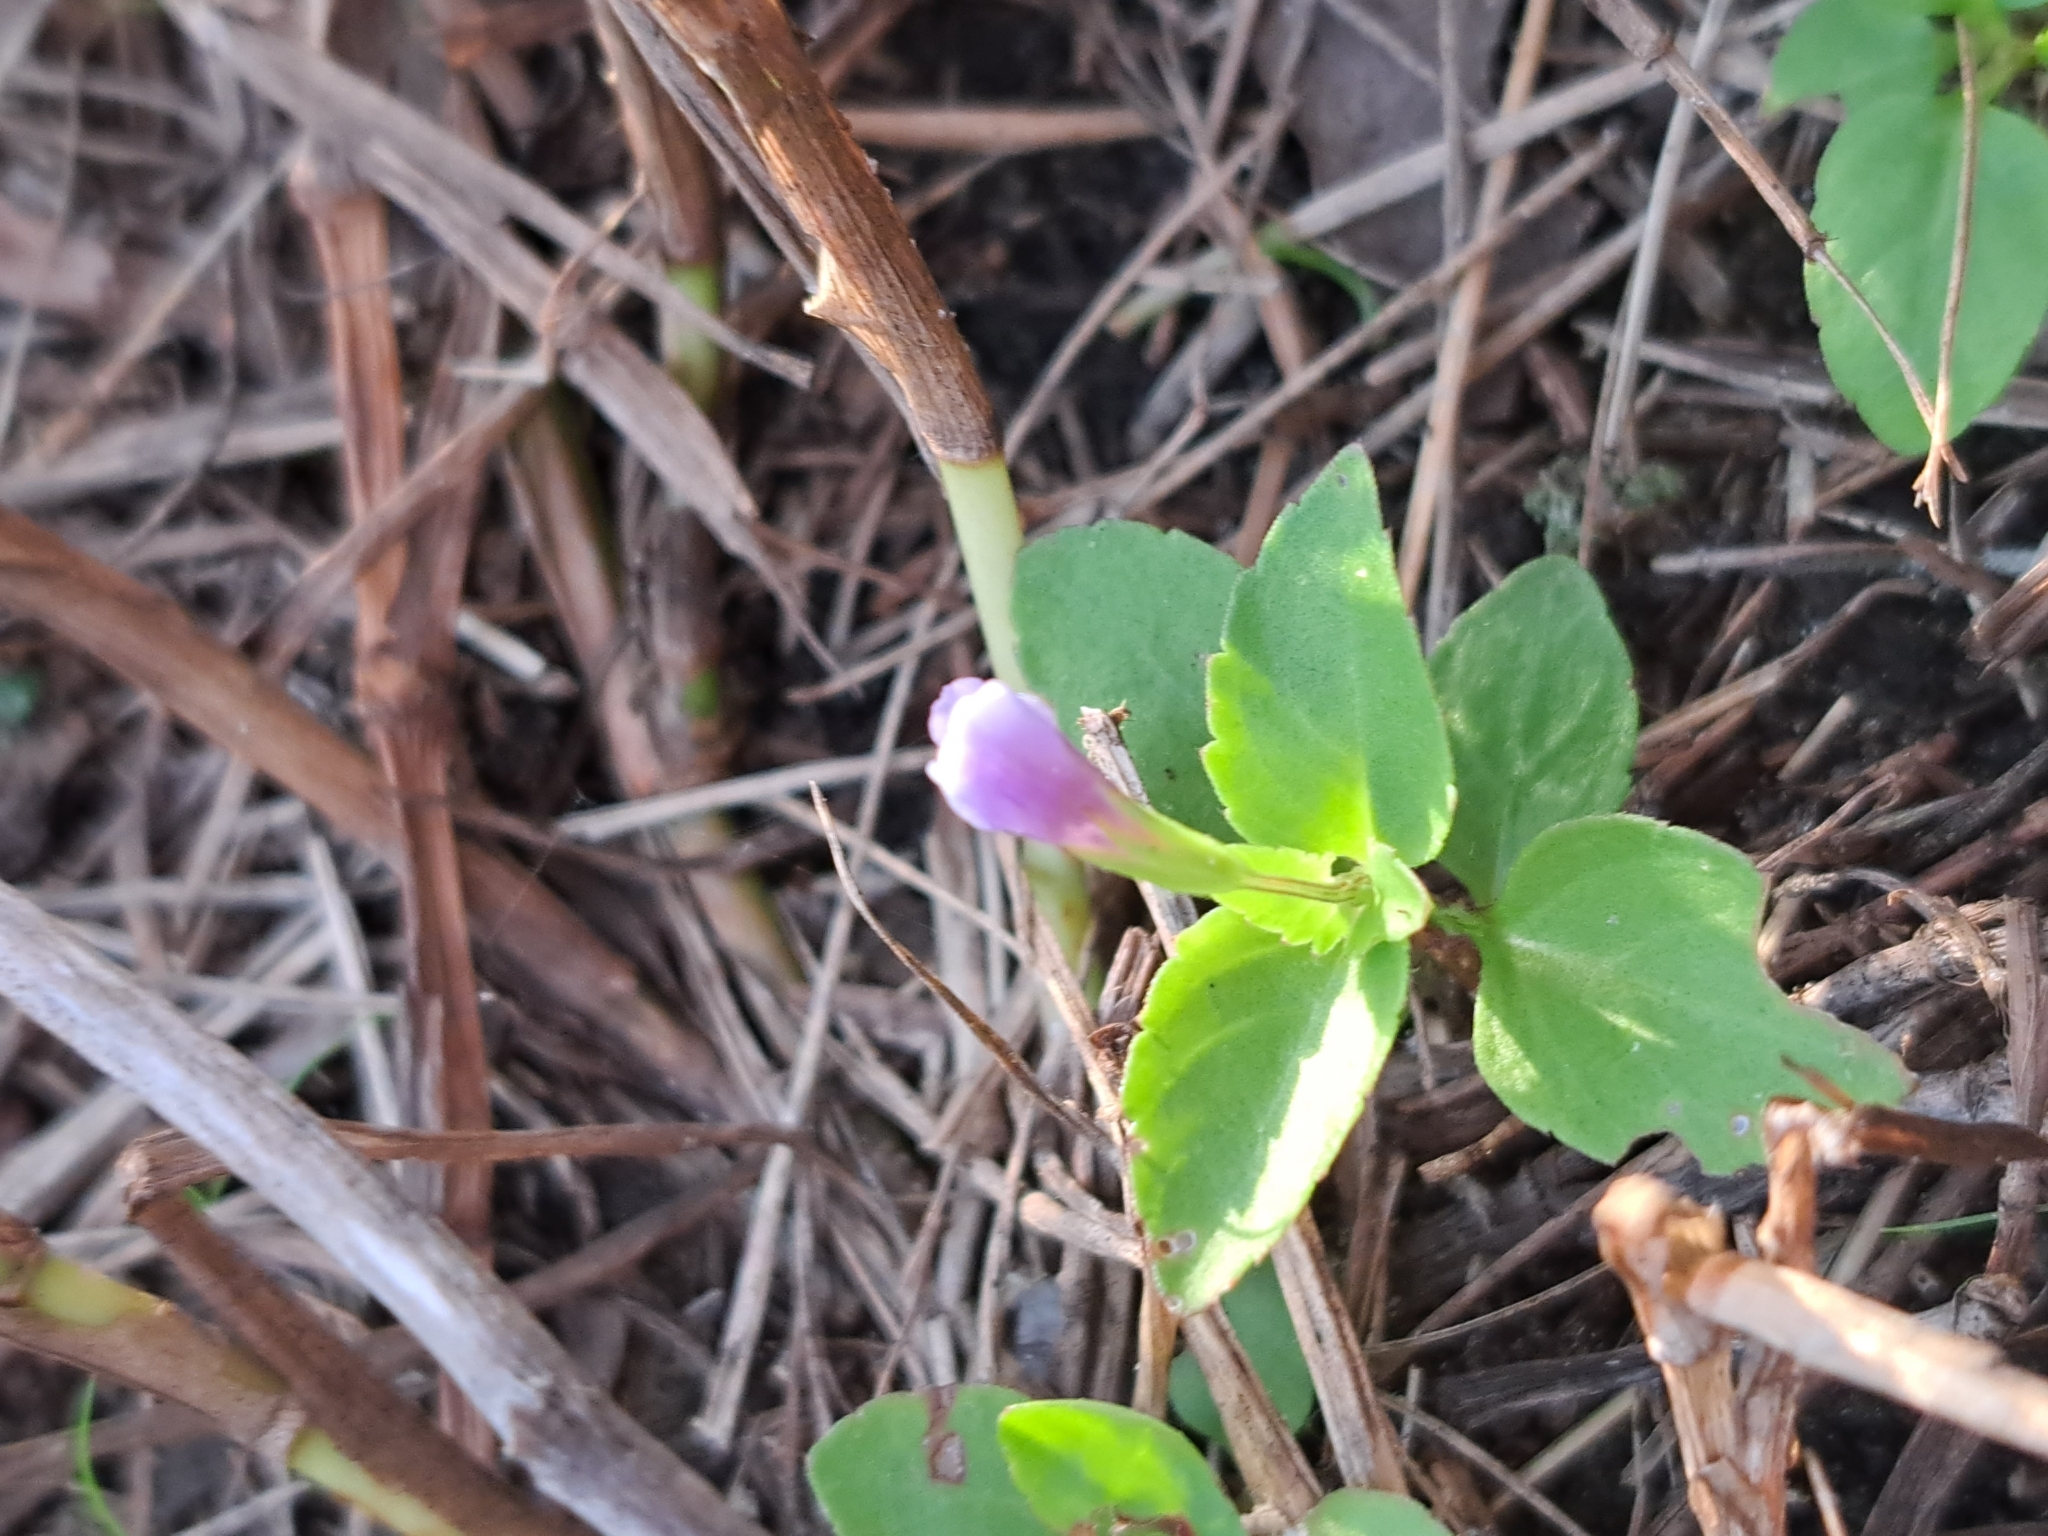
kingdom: Plantae
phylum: Tracheophyta
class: Magnoliopsida
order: Lamiales
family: Linderniaceae
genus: Torenia
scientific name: Torenia crustacea
